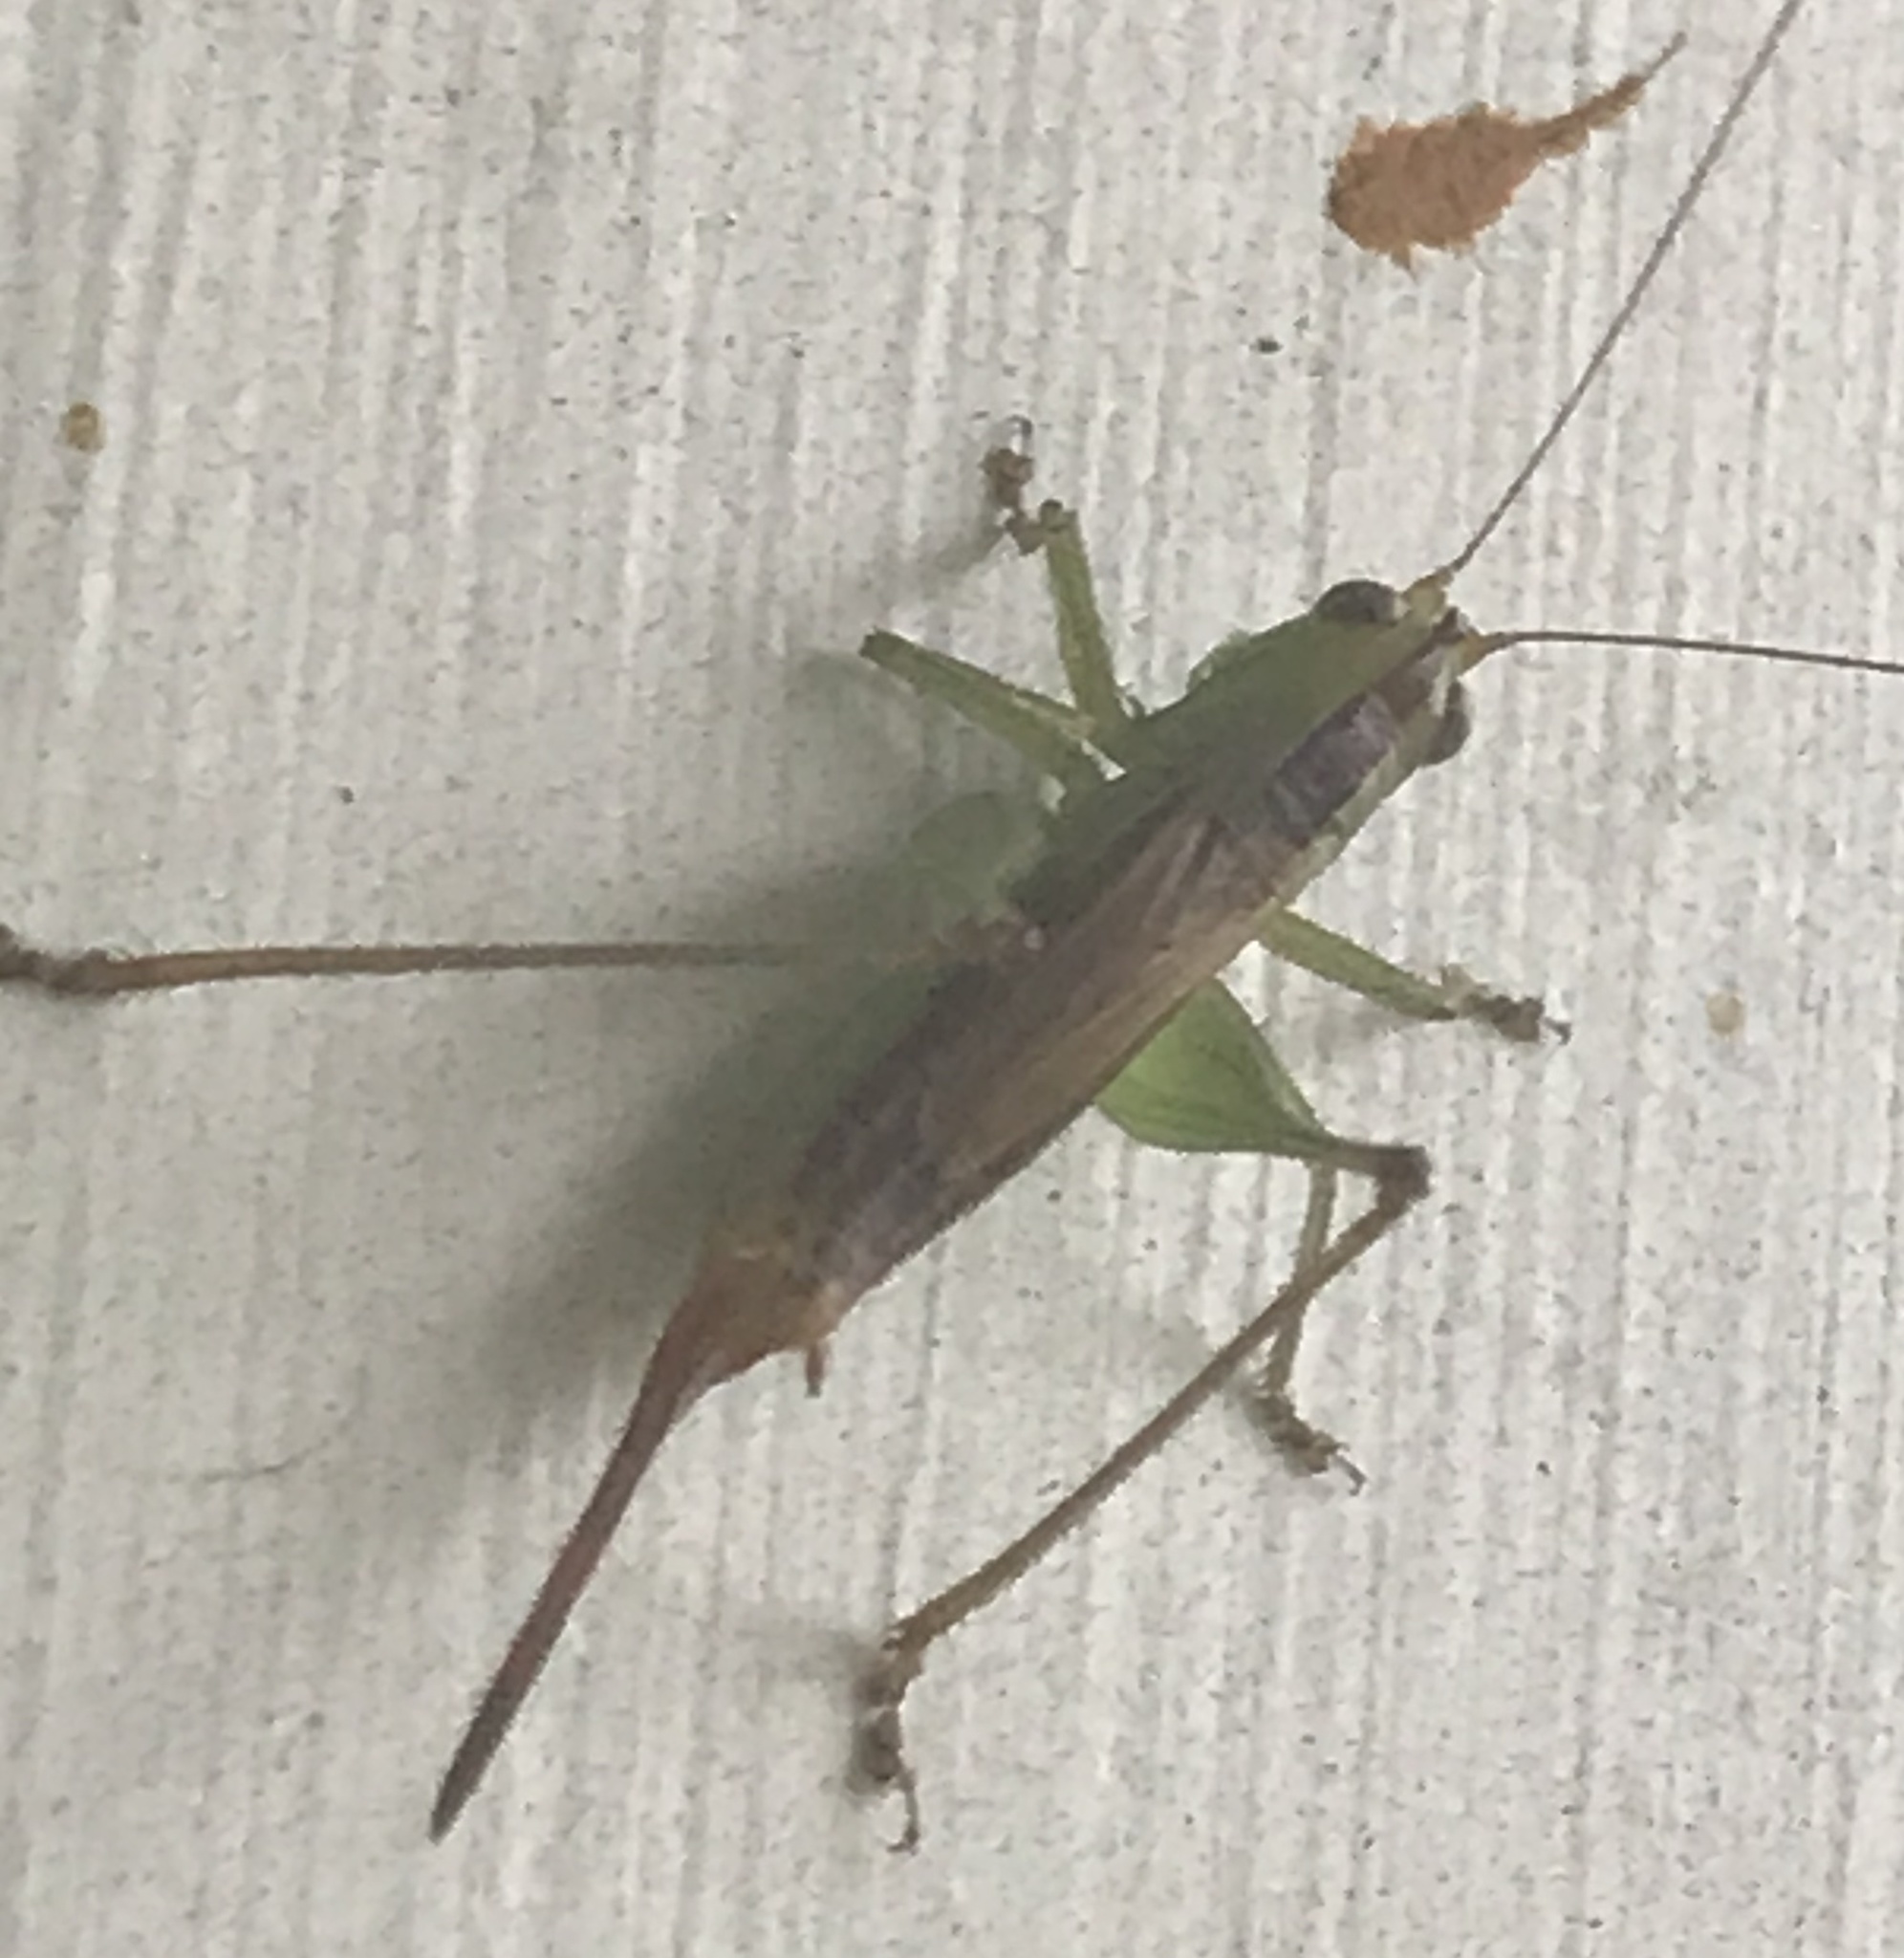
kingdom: Animalia
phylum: Arthropoda
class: Insecta
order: Orthoptera
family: Tettigoniidae
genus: Conocephalus
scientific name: Conocephalus brevipennis
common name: Short-winged meadow katydid
